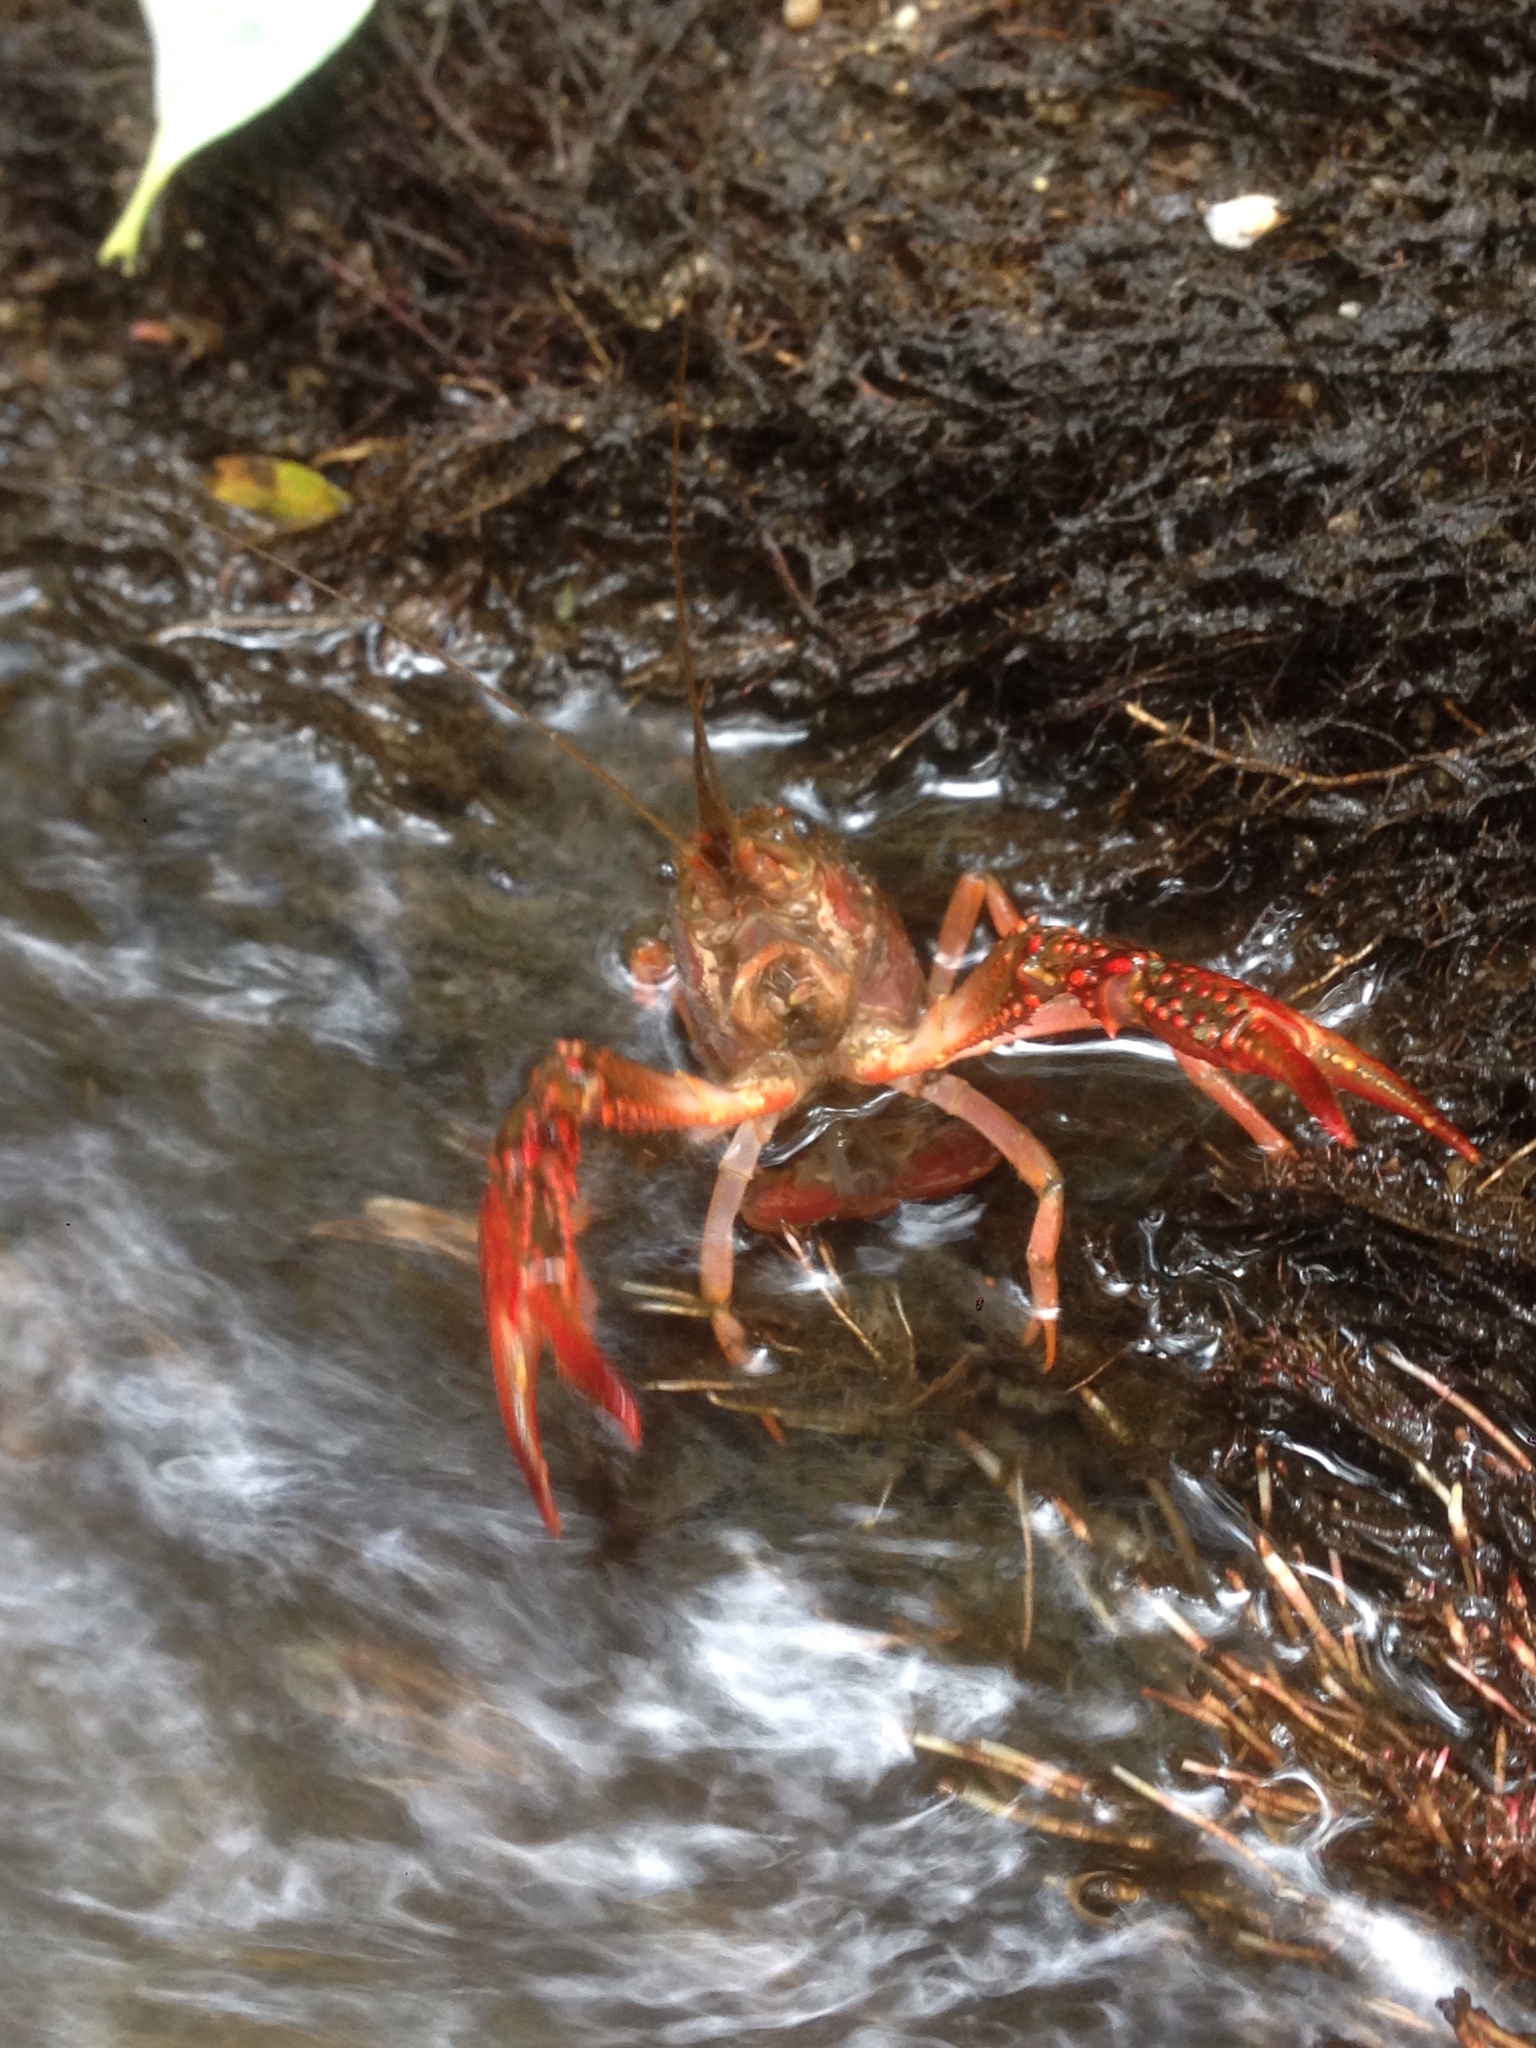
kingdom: Animalia
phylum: Arthropoda
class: Malacostraca
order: Decapoda
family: Cambaridae
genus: Procambarus
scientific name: Procambarus clarkii
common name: Red swamp crayfish
